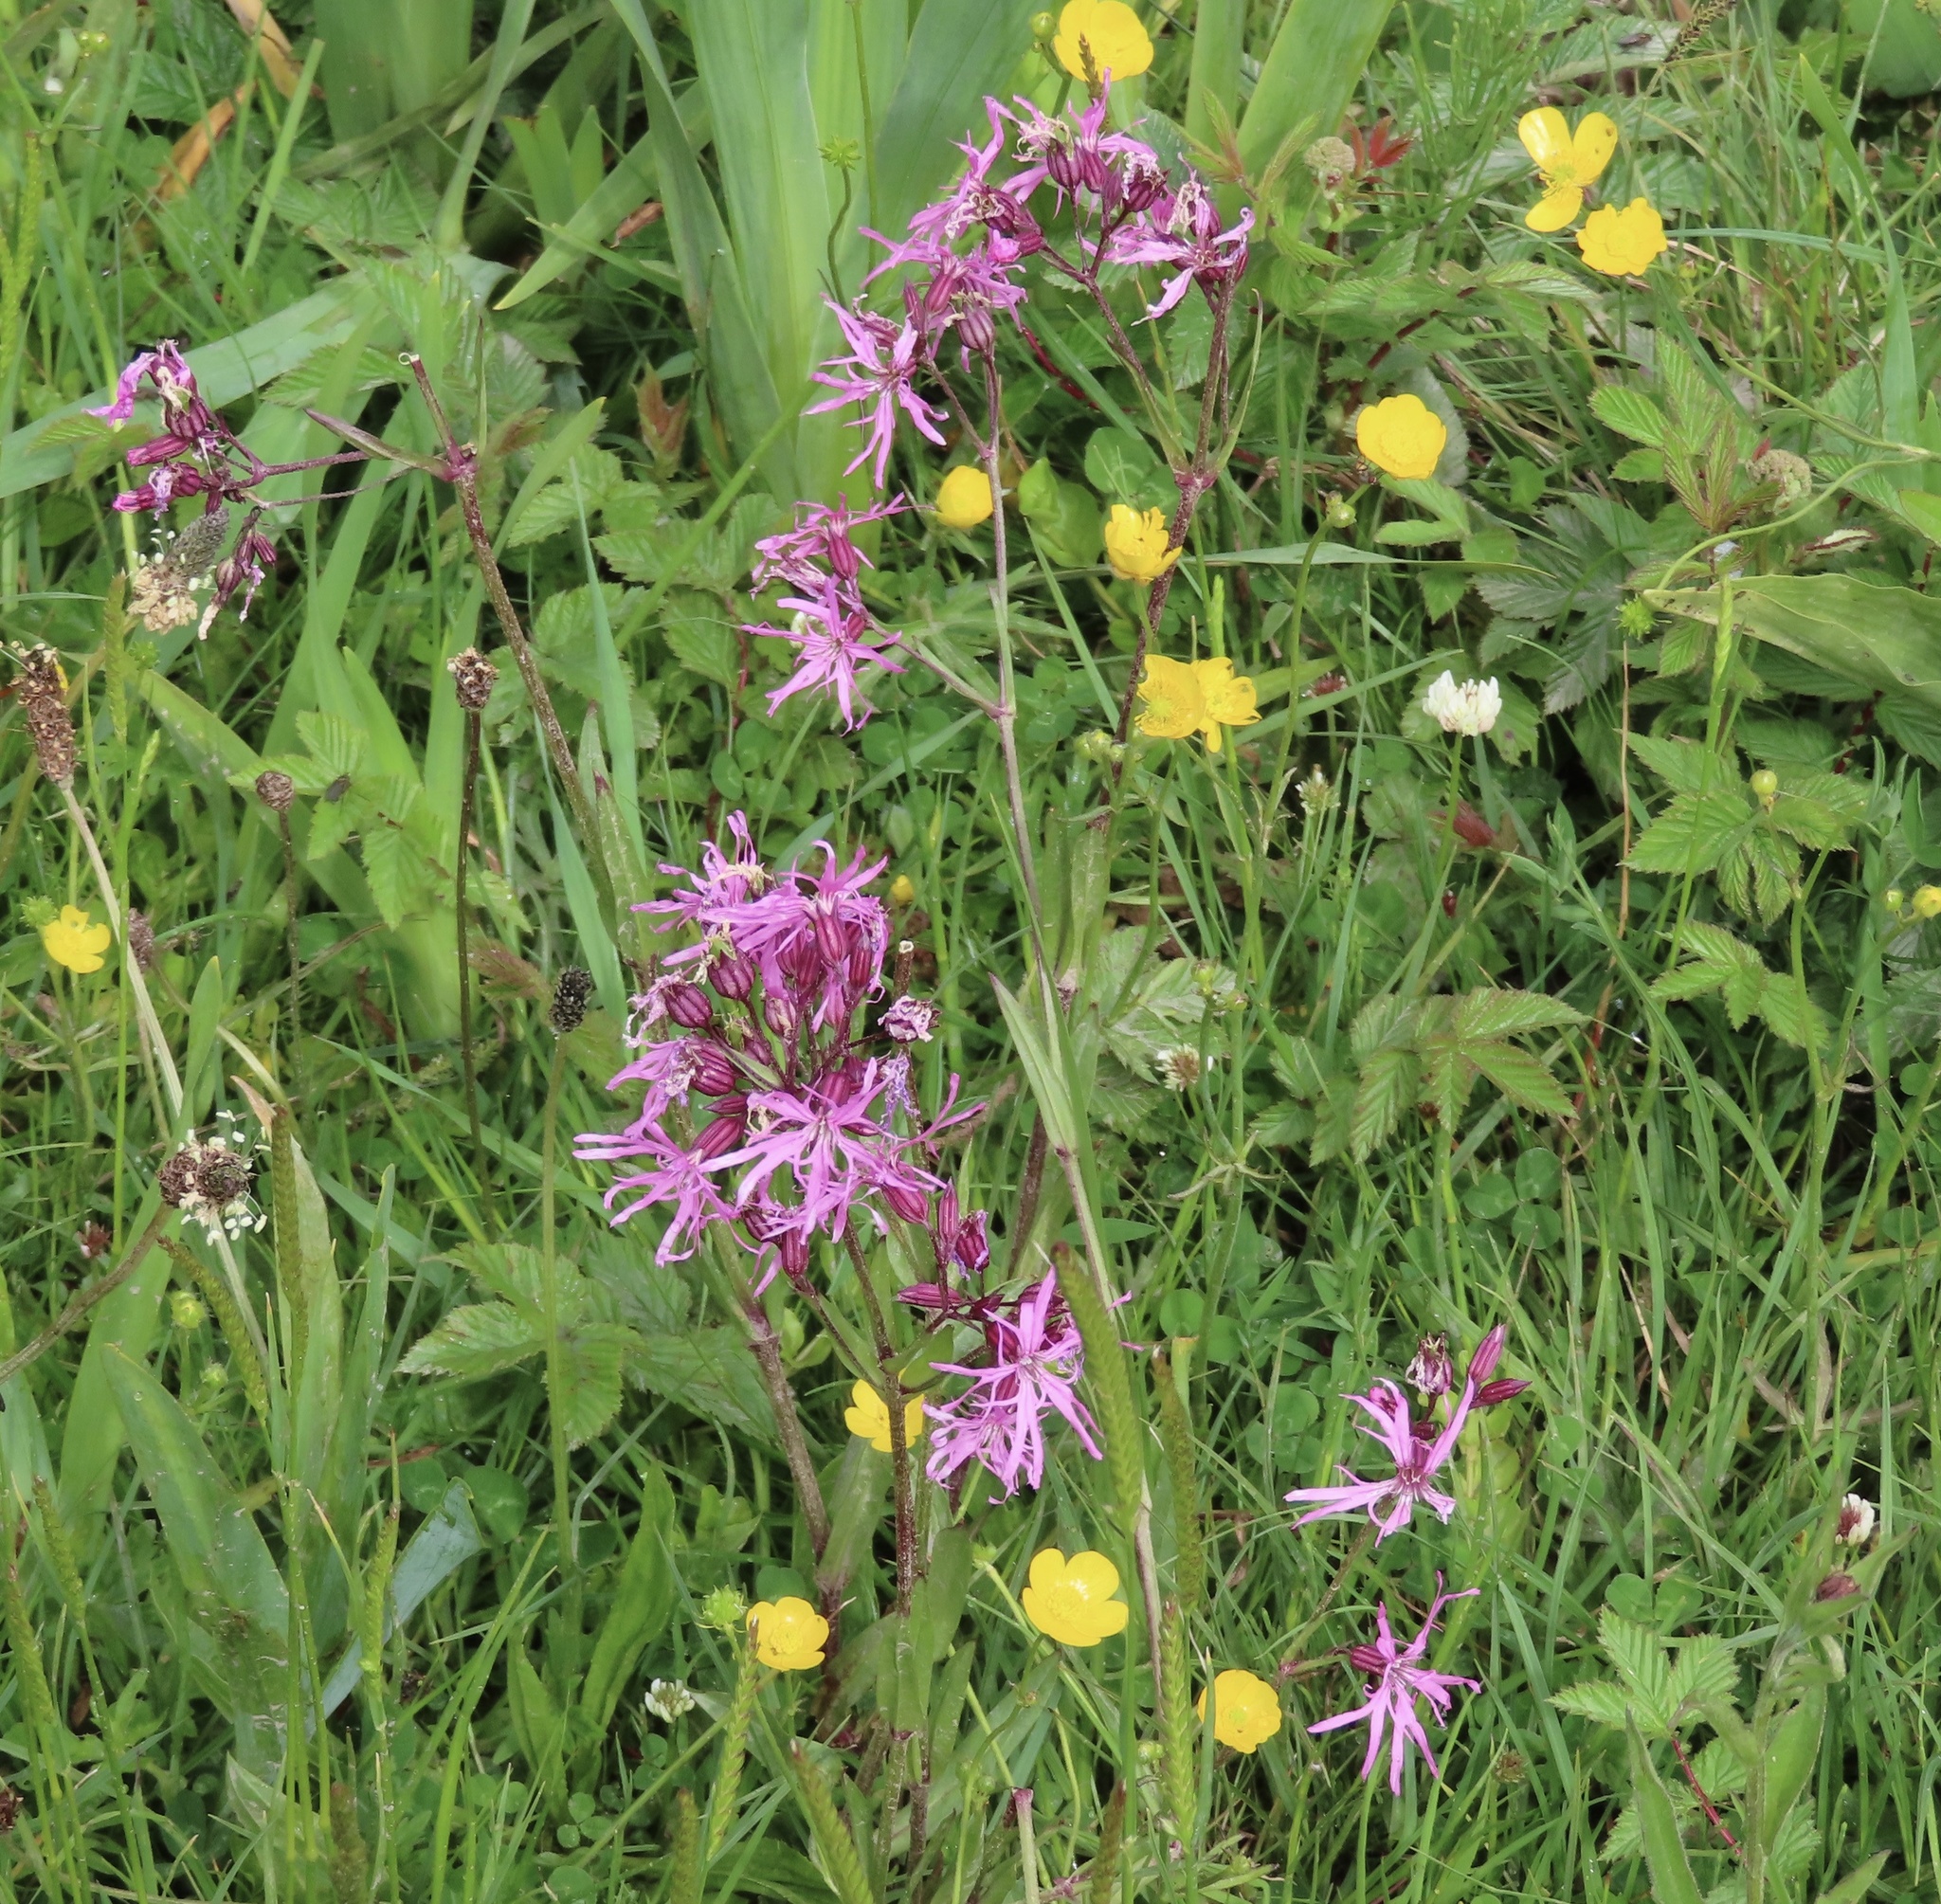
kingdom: Plantae
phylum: Tracheophyta
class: Magnoliopsida
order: Caryophyllales
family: Caryophyllaceae
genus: Silene
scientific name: Silene flos-cuculi
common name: Ragged-robin
